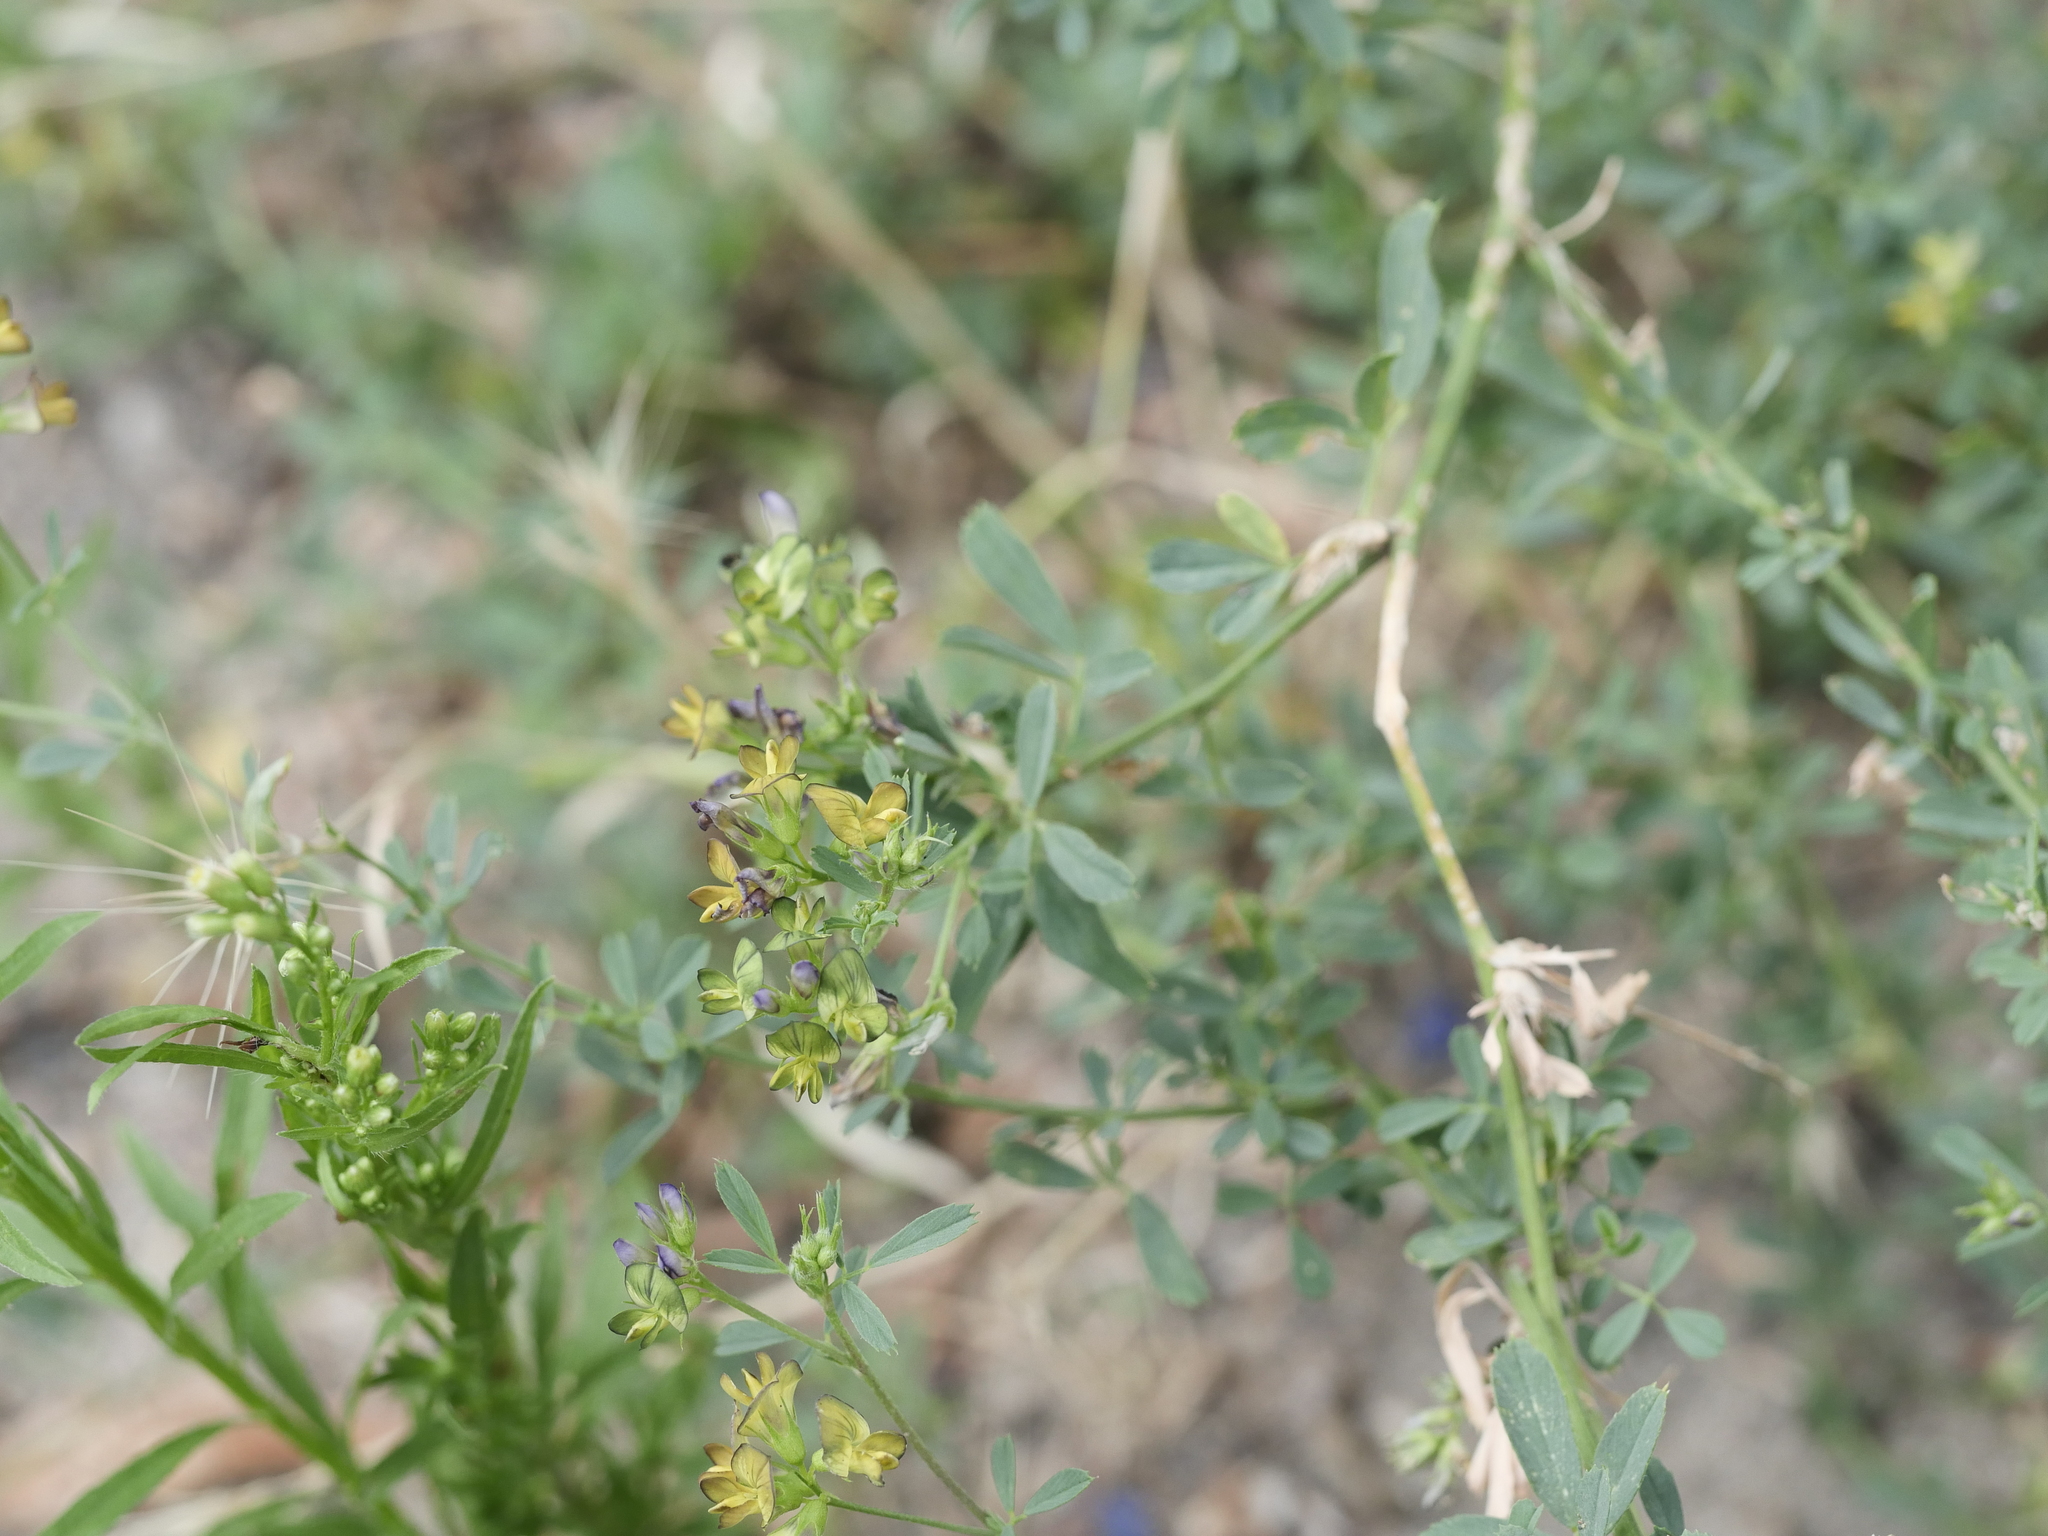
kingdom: Plantae
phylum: Tracheophyta
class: Magnoliopsida
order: Fabales
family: Fabaceae
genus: Medicago
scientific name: Medicago varia
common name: Sand lucerne
